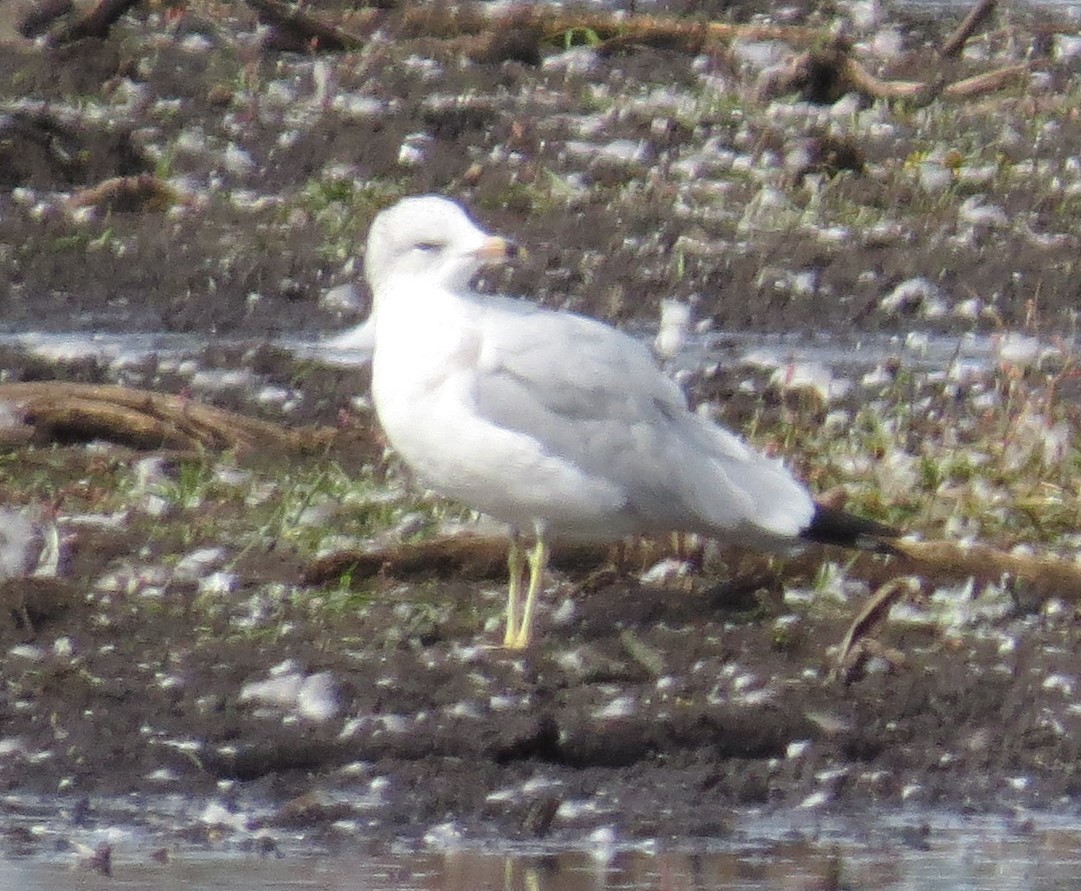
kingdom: Animalia
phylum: Chordata
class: Aves
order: Charadriiformes
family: Laridae
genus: Larus
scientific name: Larus delawarensis
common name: Ring-billed gull
